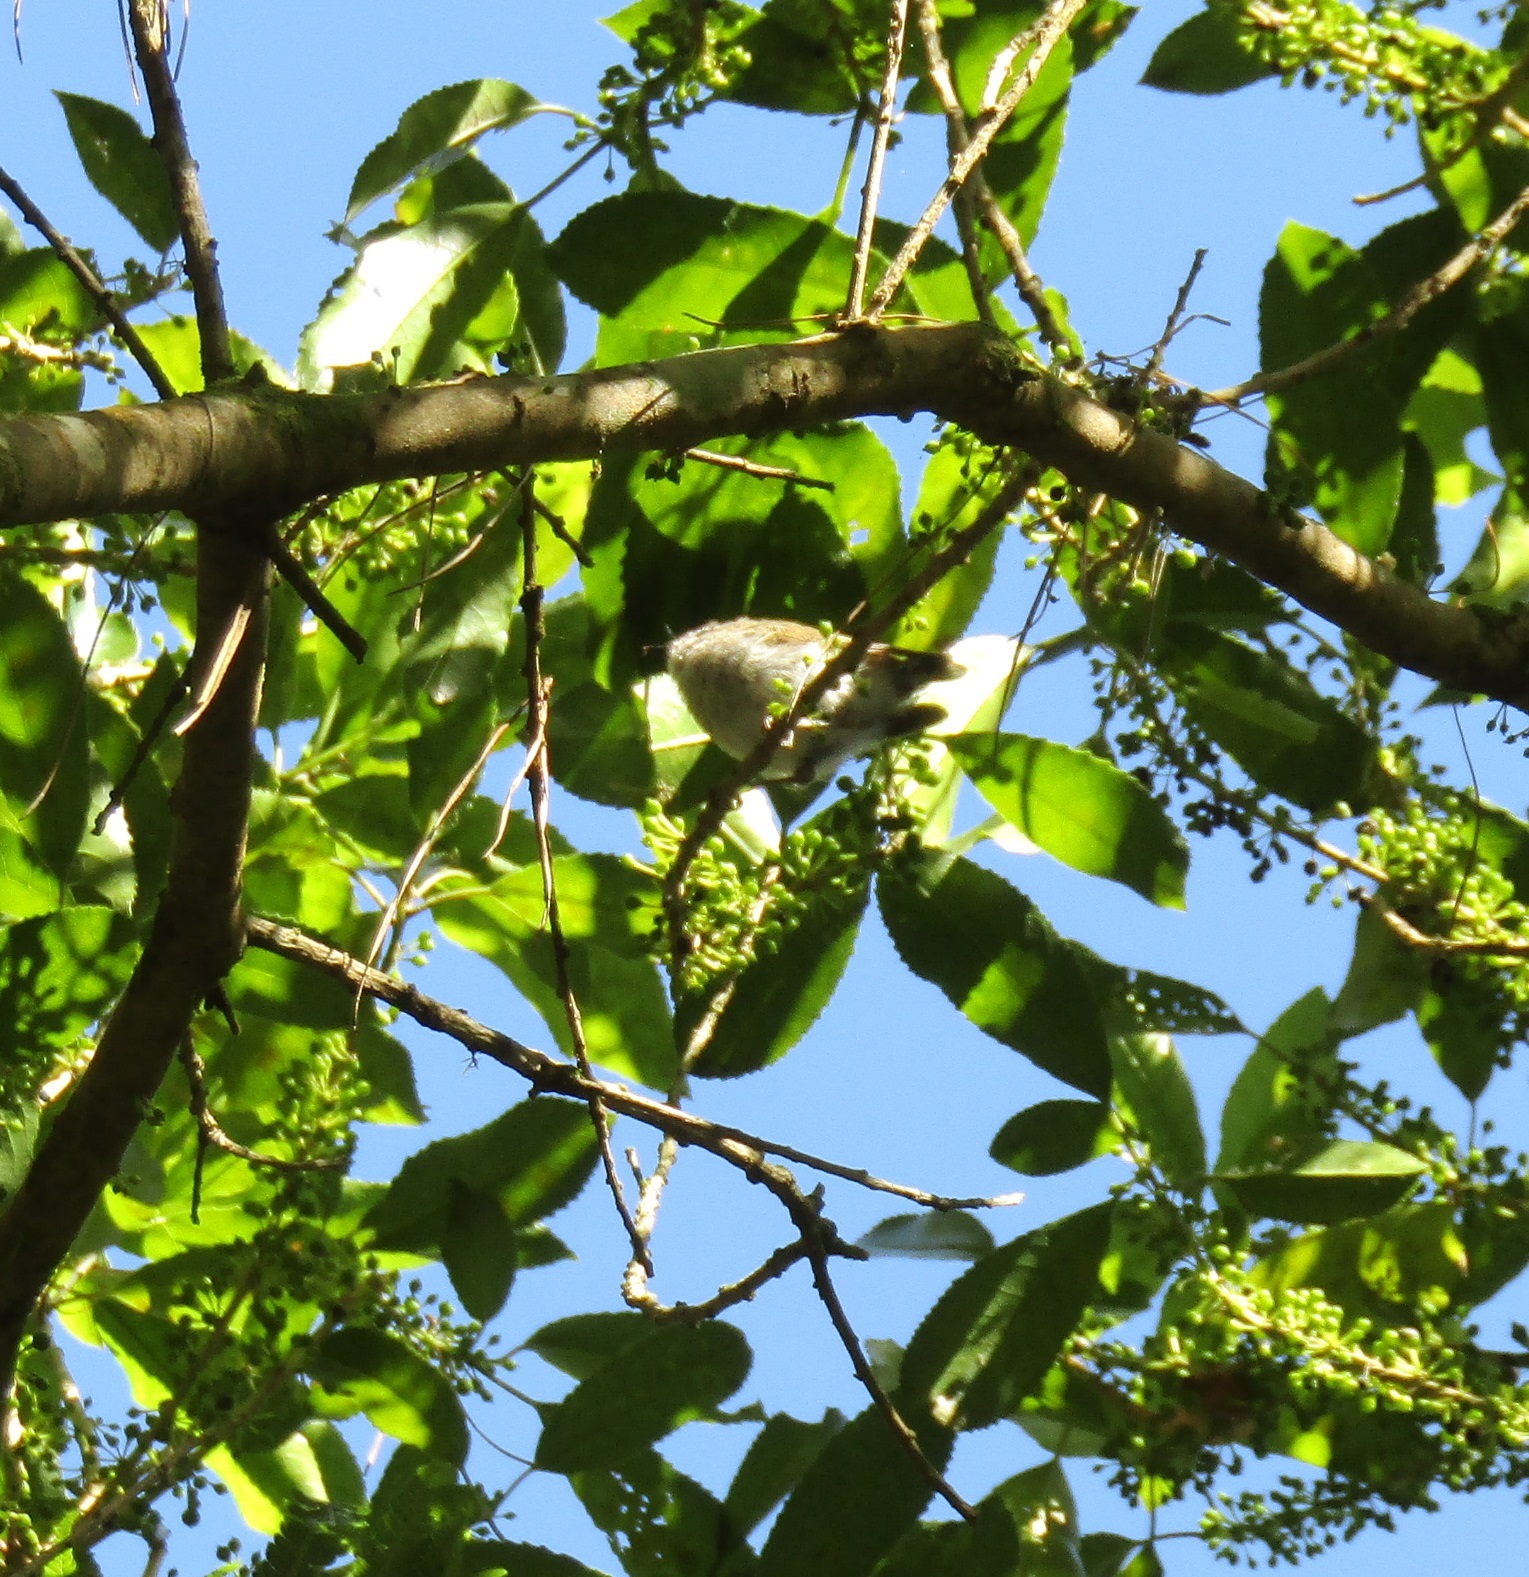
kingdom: Animalia
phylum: Chordata
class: Aves
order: Passeriformes
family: Acanthizidae
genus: Gerygone
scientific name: Gerygone igata
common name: Grey gerygone
